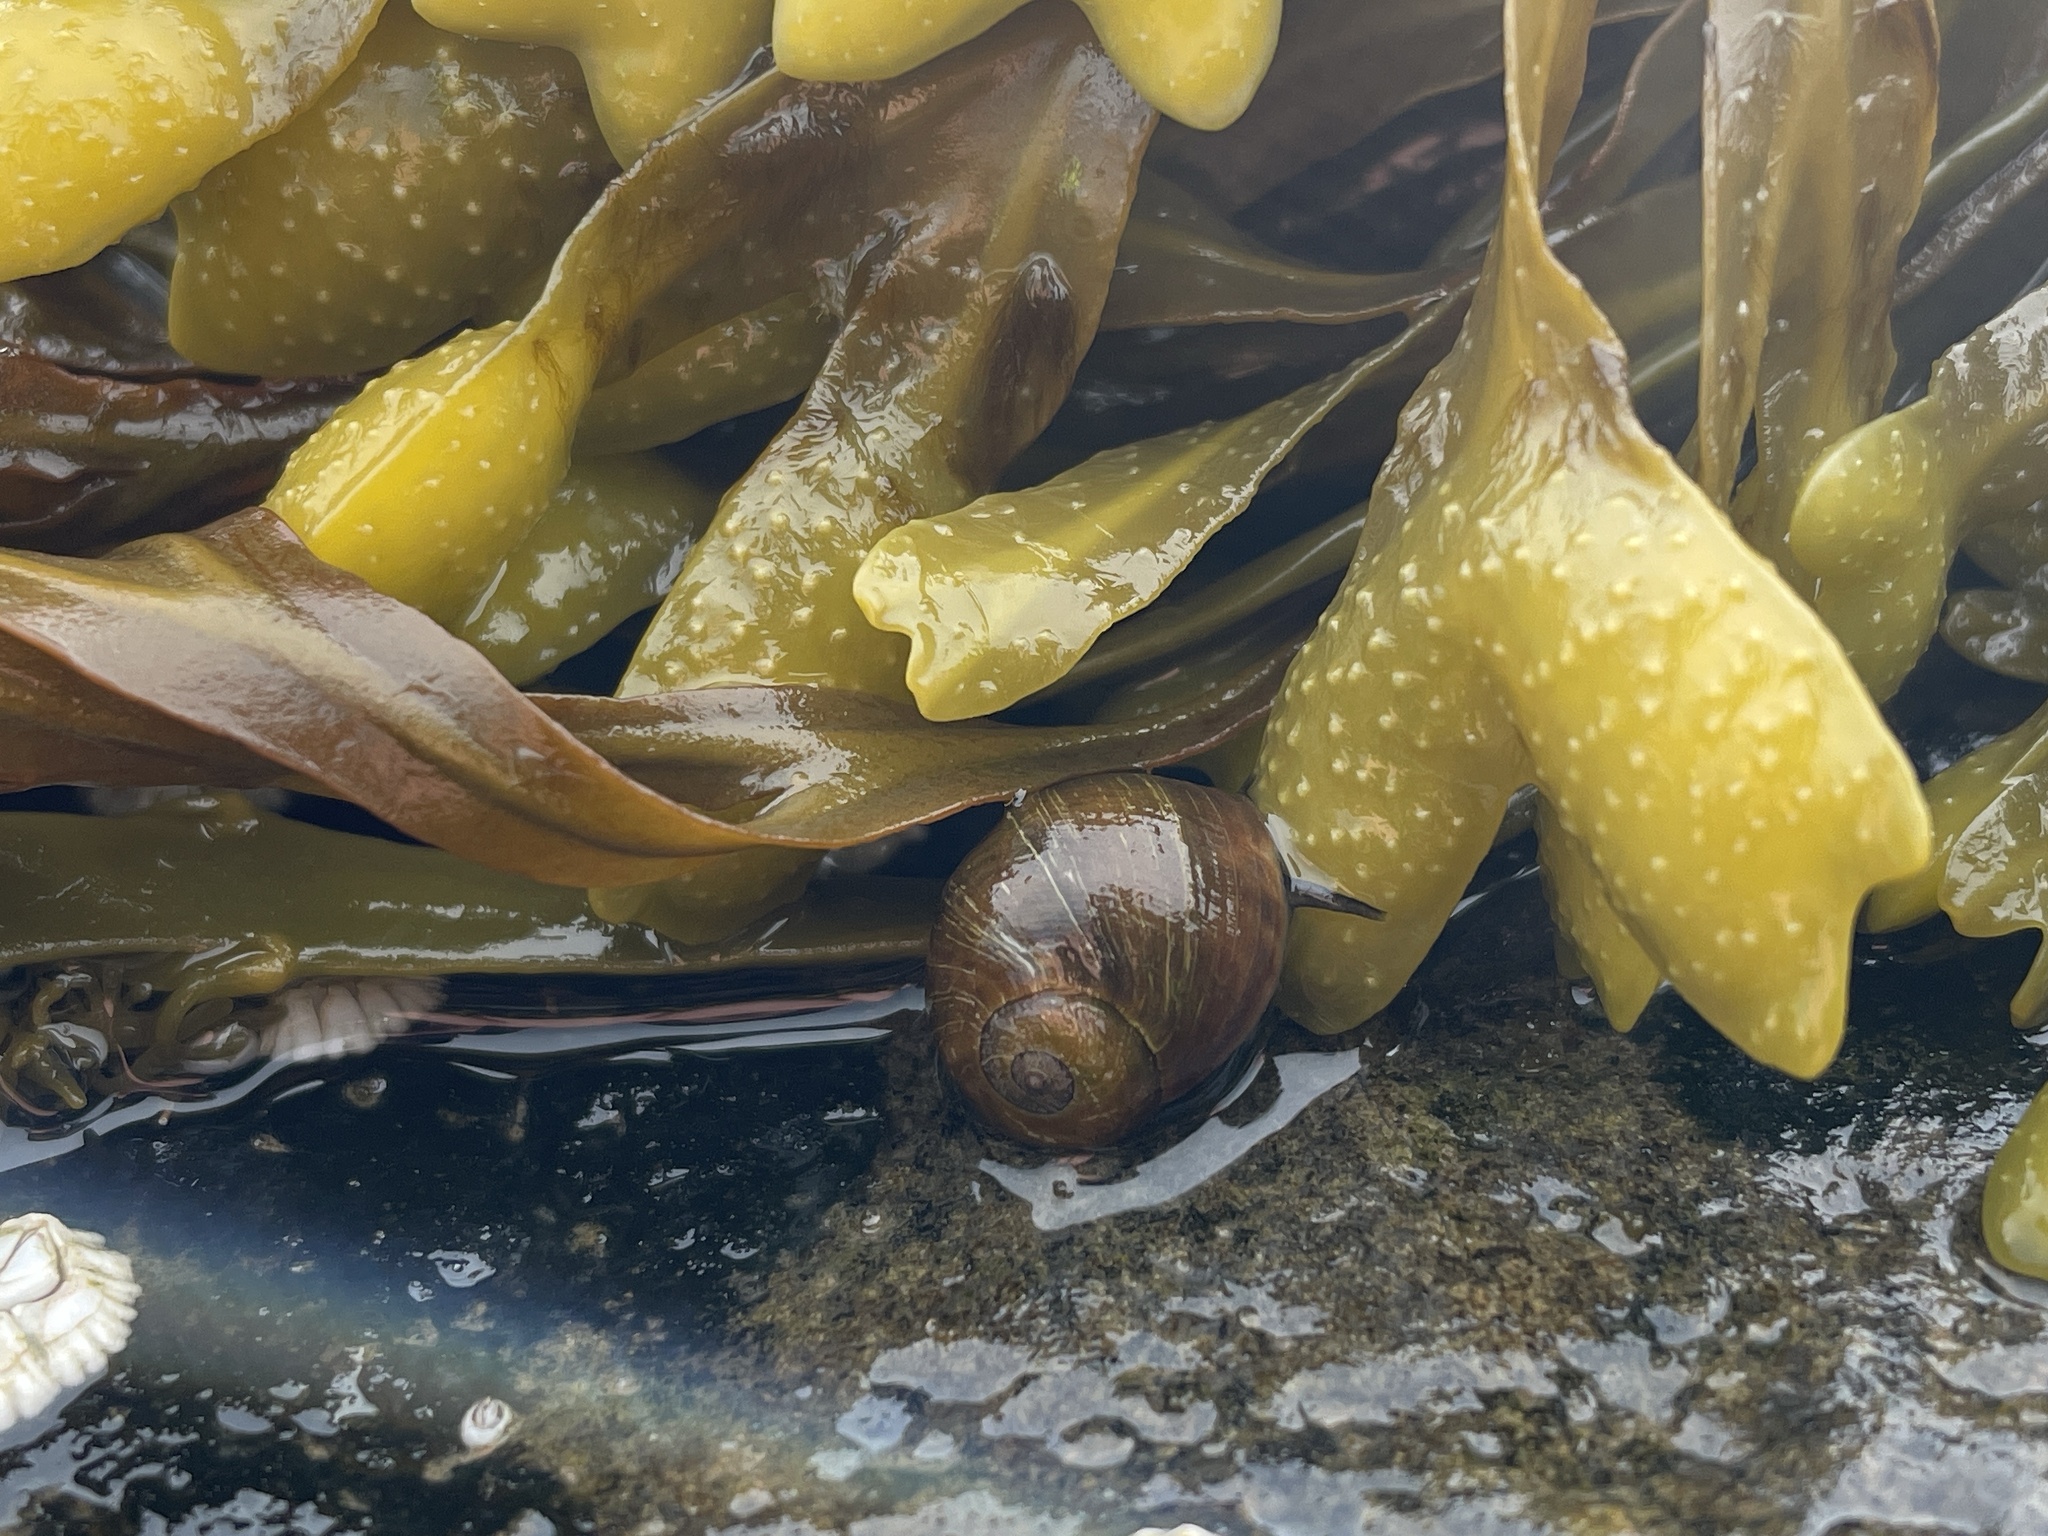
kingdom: Animalia
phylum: Mollusca
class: Gastropoda
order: Littorinimorpha
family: Littorinidae
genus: Littorina
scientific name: Littorina obtusata
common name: Flat periwinkle
